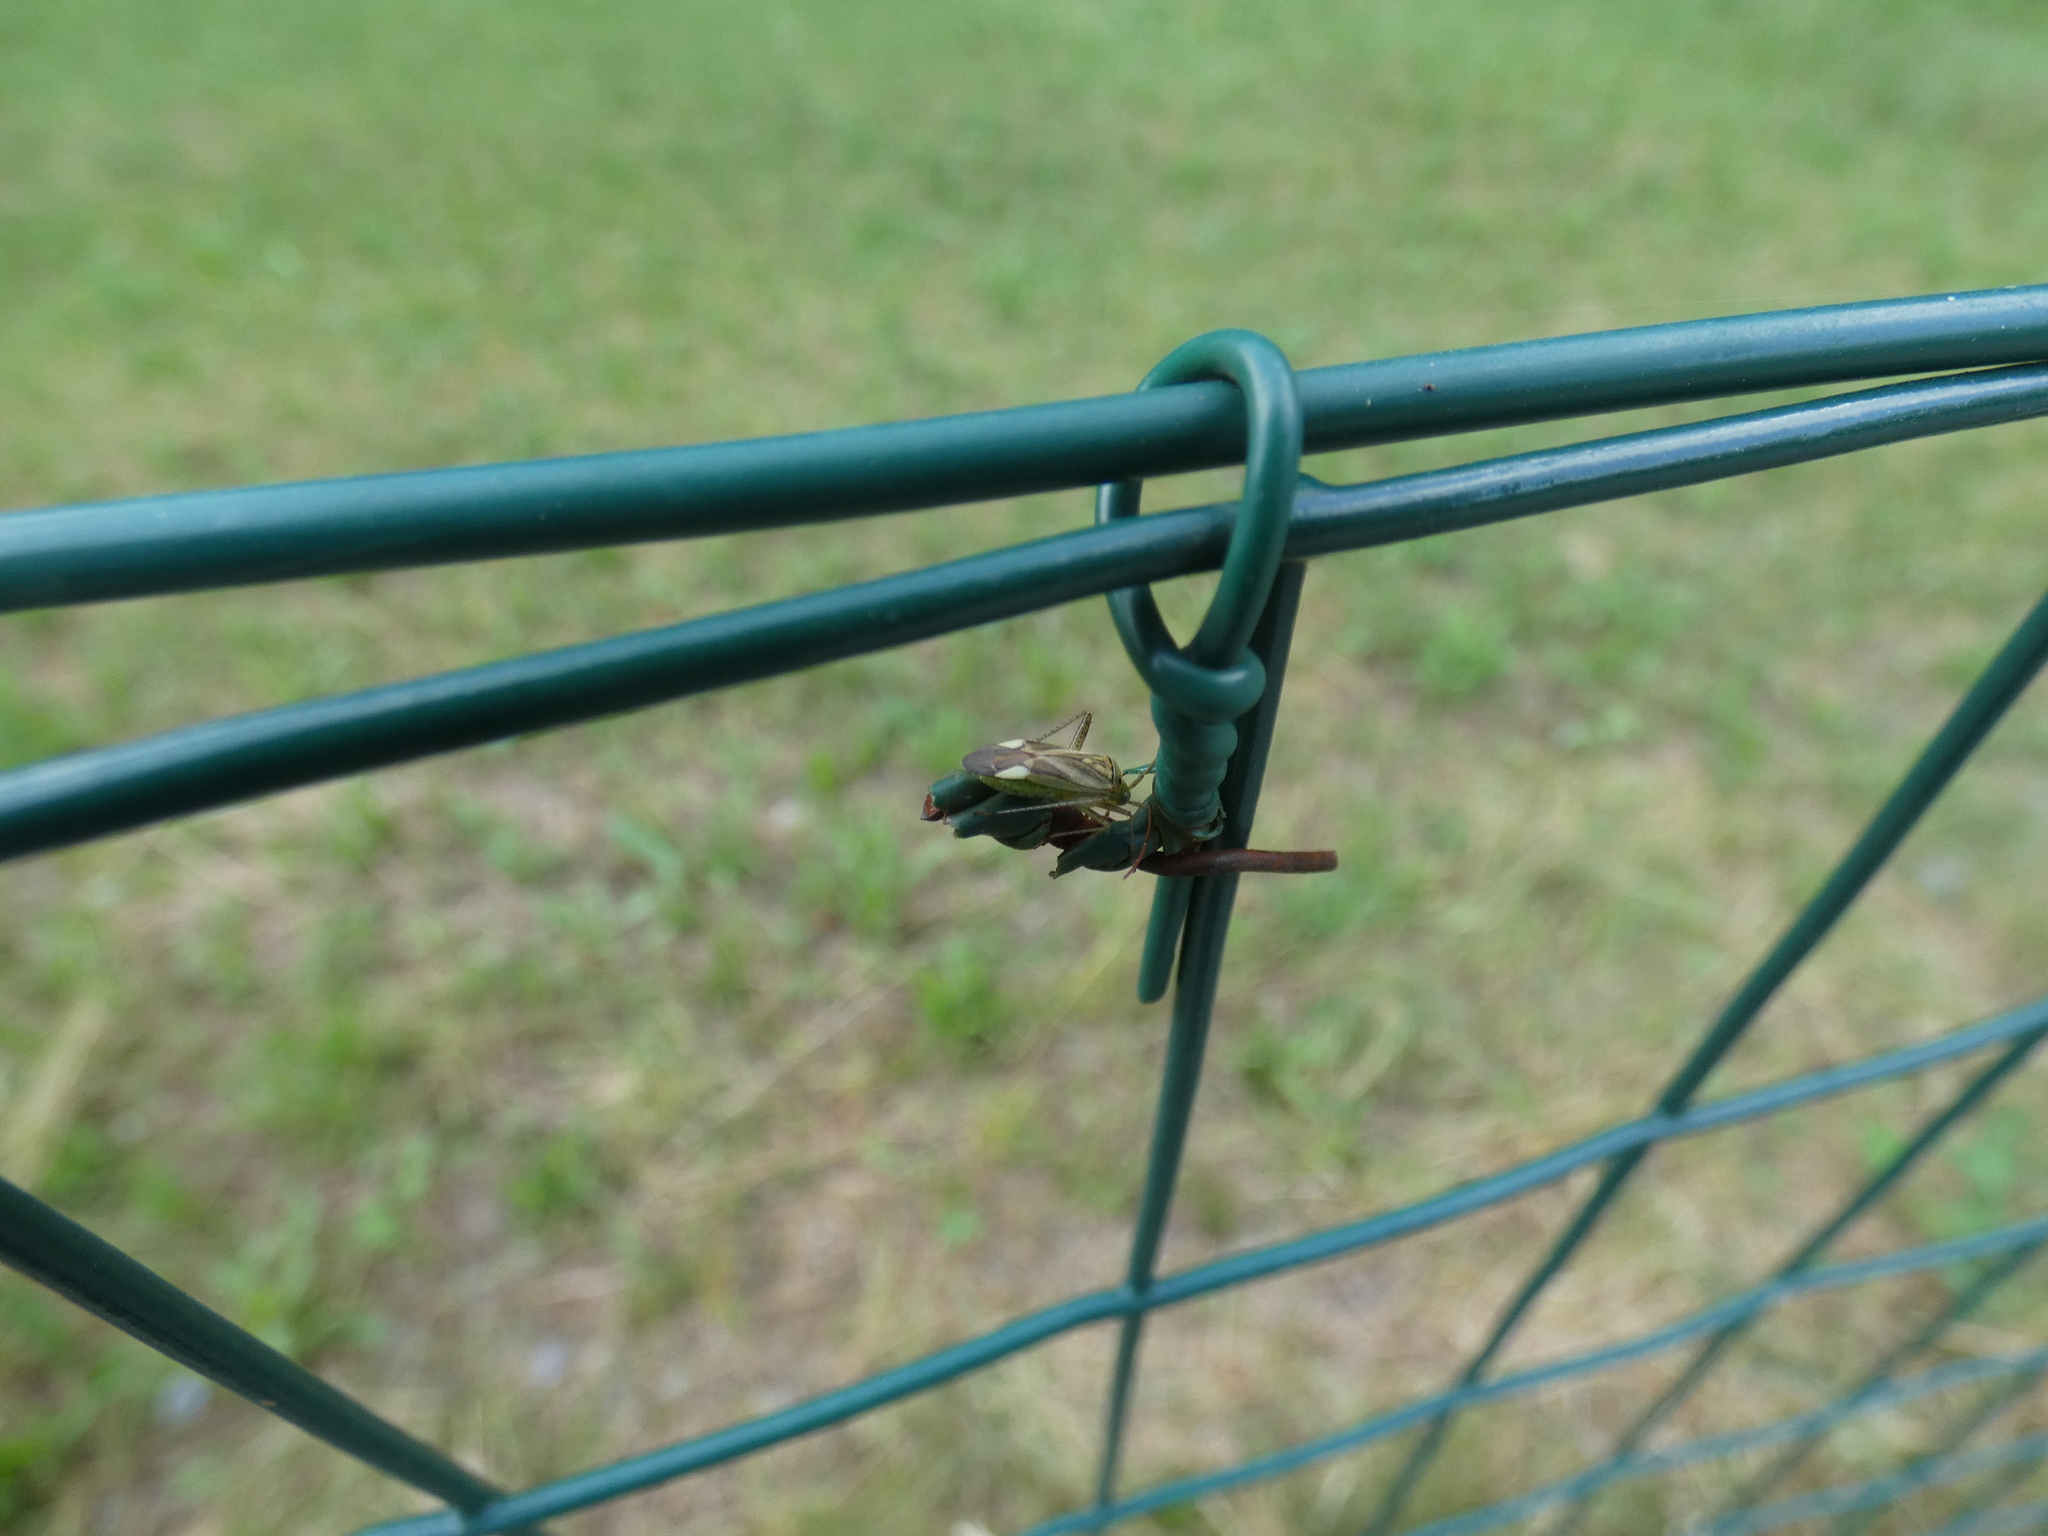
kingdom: Animalia
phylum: Arthropoda
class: Insecta
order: Hemiptera
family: Miridae
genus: Adelphocoris
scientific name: Adelphocoris lineolatus
